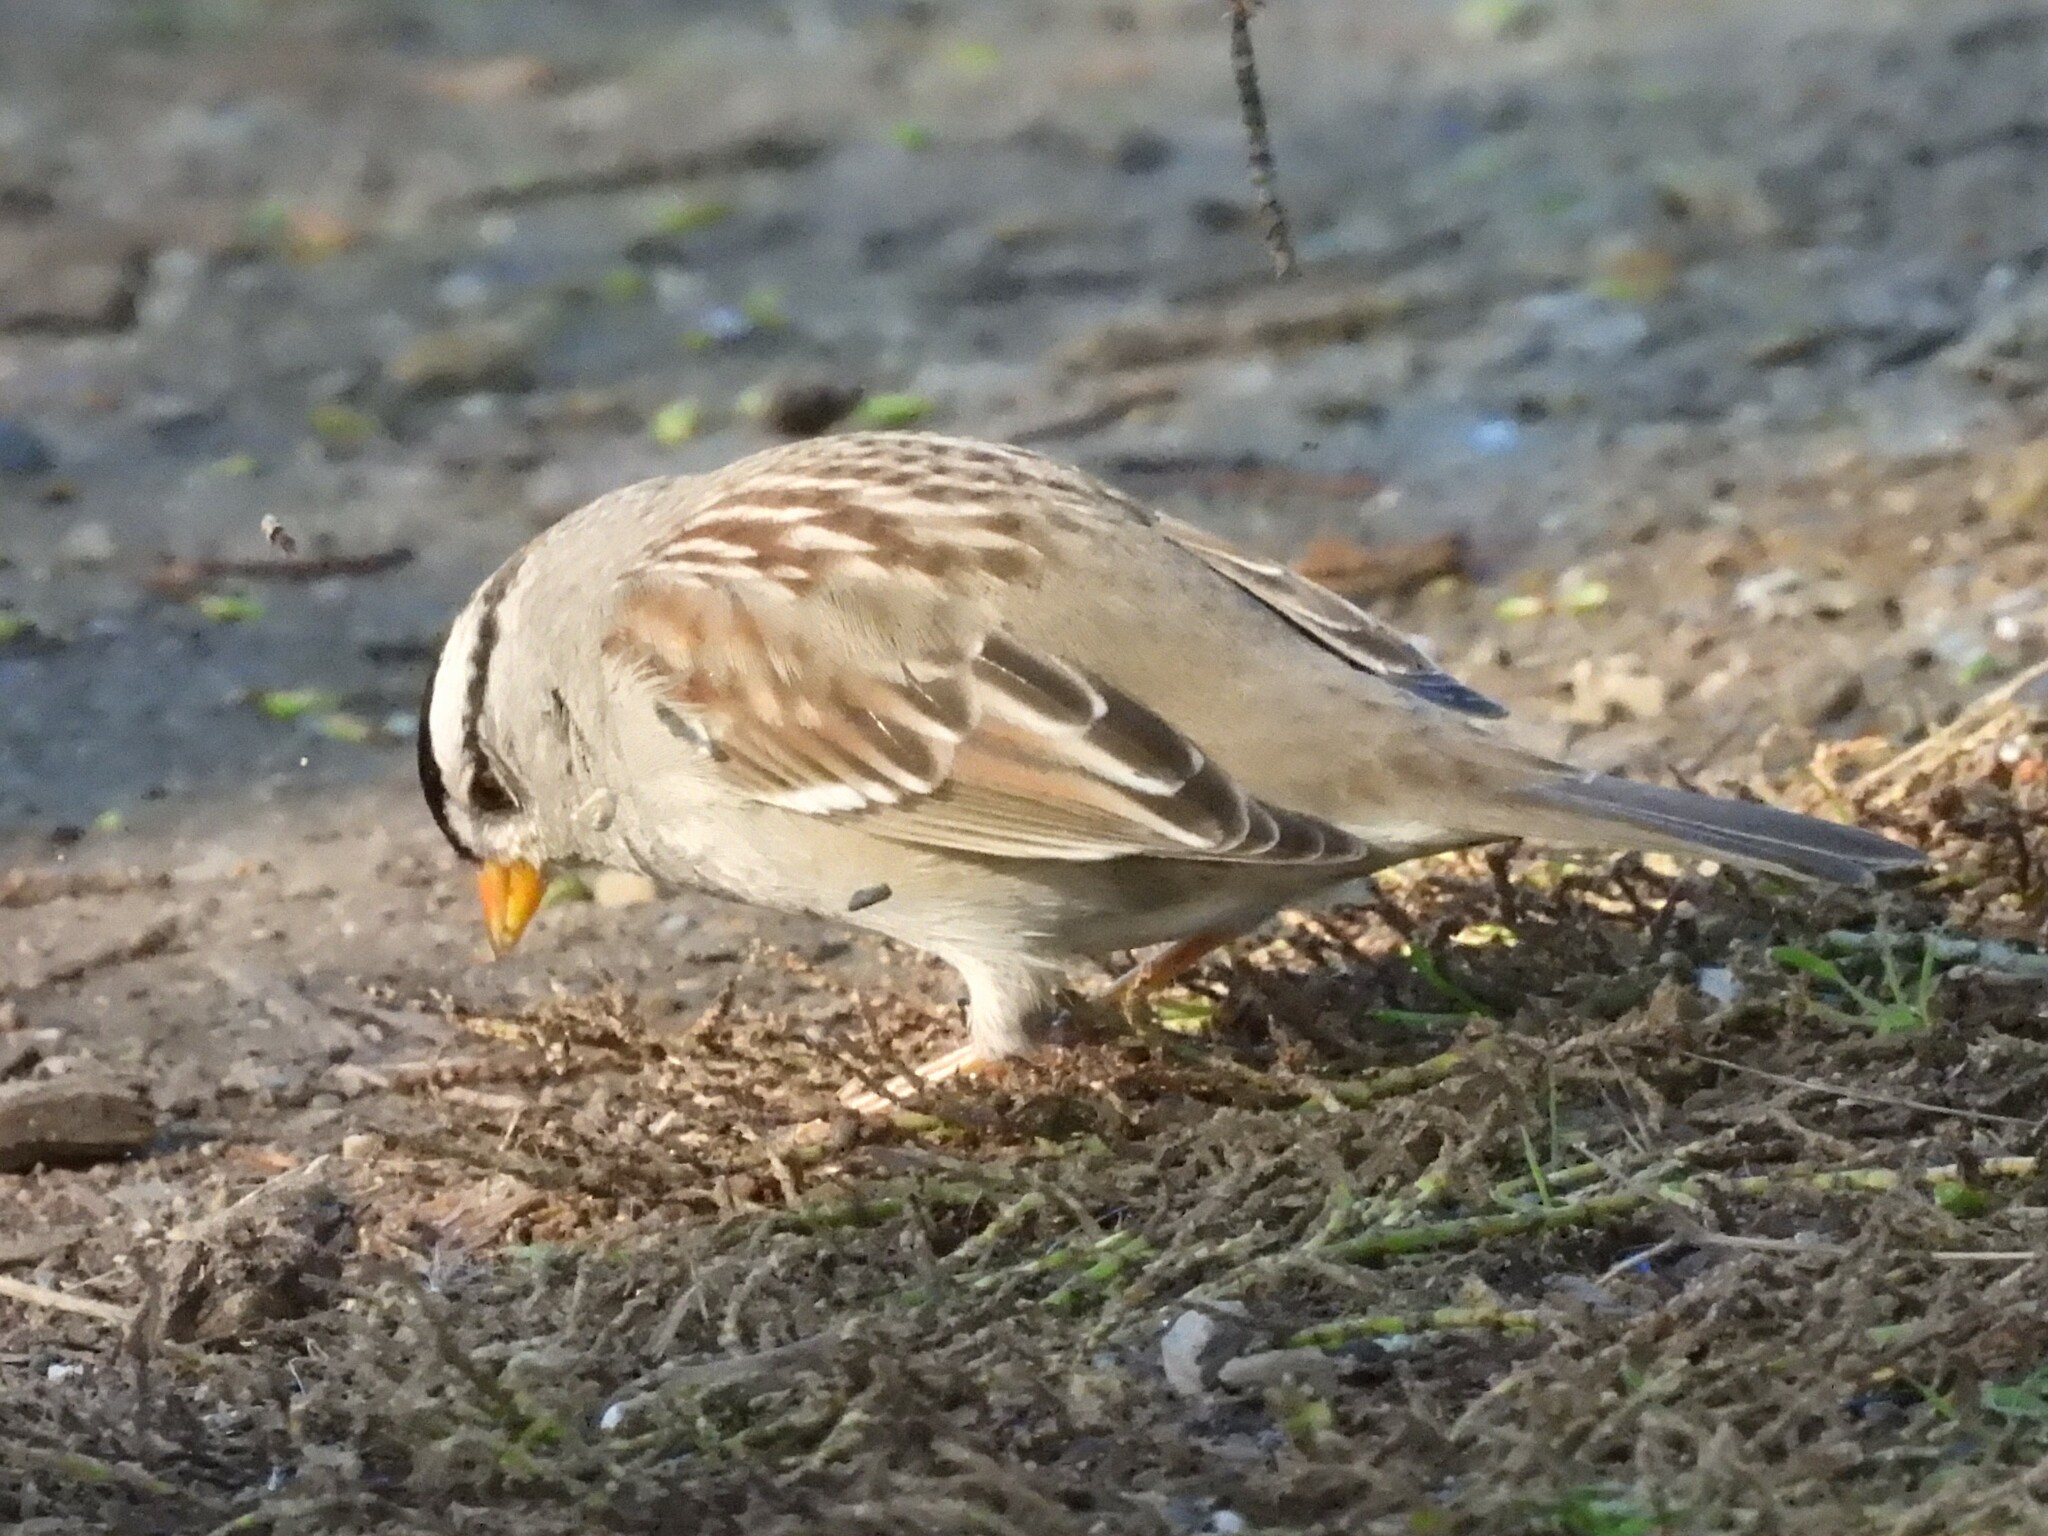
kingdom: Animalia
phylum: Chordata
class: Aves
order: Passeriformes
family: Passerellidae
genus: Zonotrichia
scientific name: Zonotrichia leucophrys
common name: White-crowned sparrow
